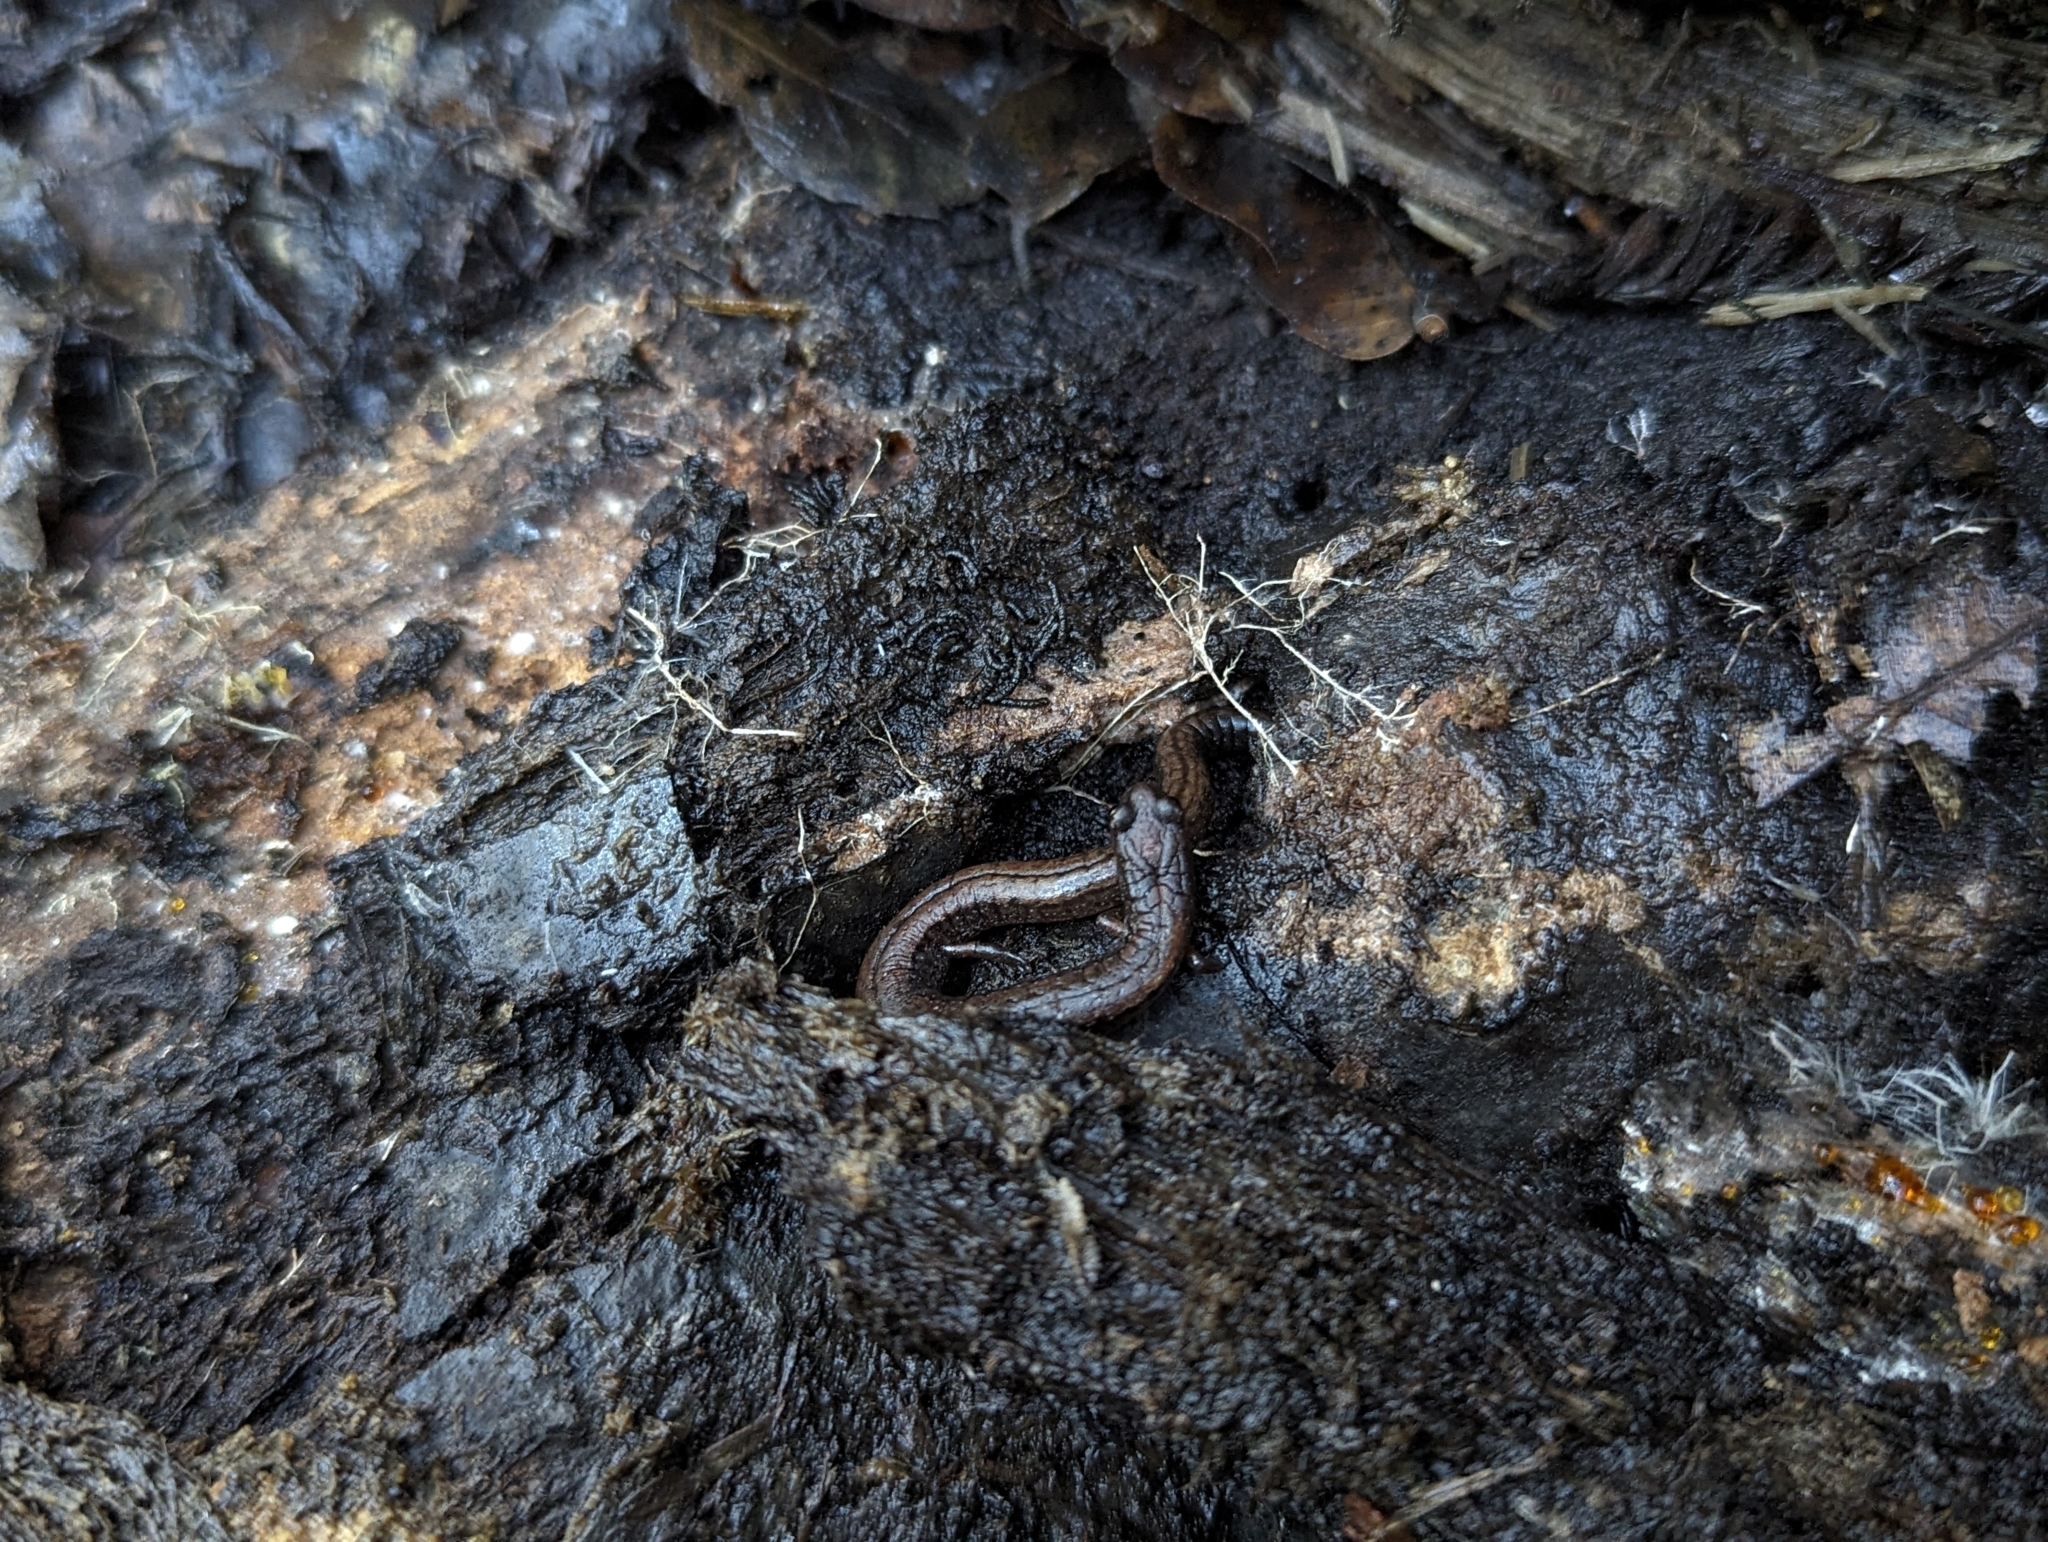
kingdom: Animalia
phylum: Chordata
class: Amphibia
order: Caudata
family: Plethodontidae
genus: Batrachoseps
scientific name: Batrachoseps attenuatus
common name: California slender salamander
